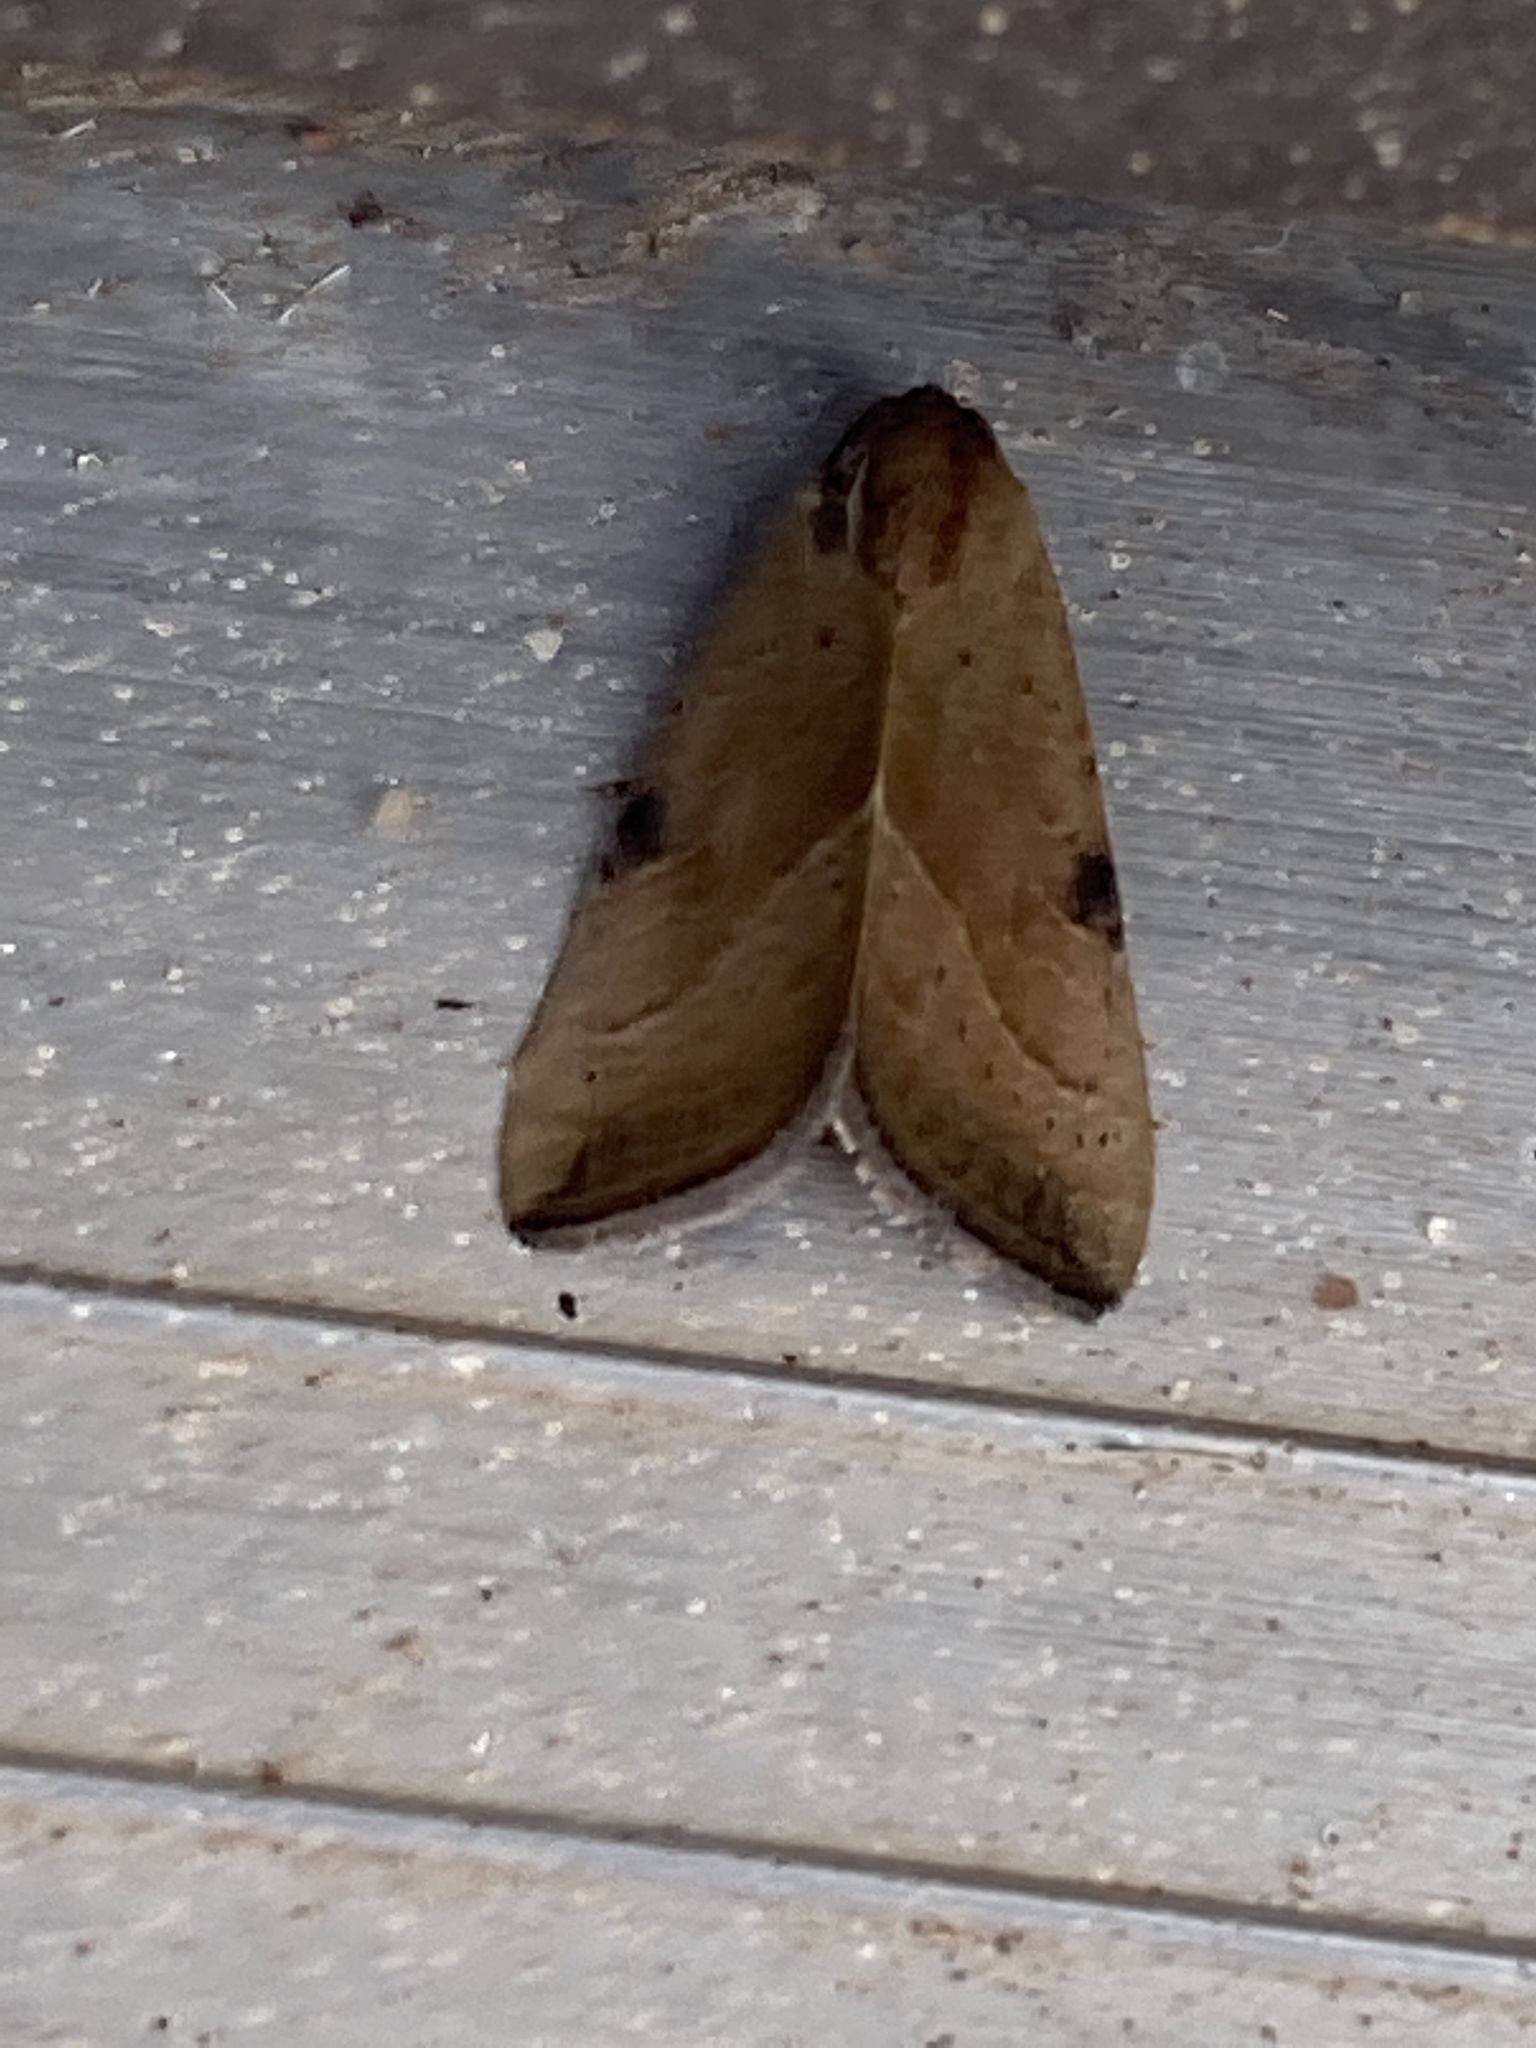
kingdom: Animalia
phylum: Arthropoda
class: Insecta
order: Lepidoptera
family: Noctuidae
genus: Galgula
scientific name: Galgula partita
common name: Wedgeling
